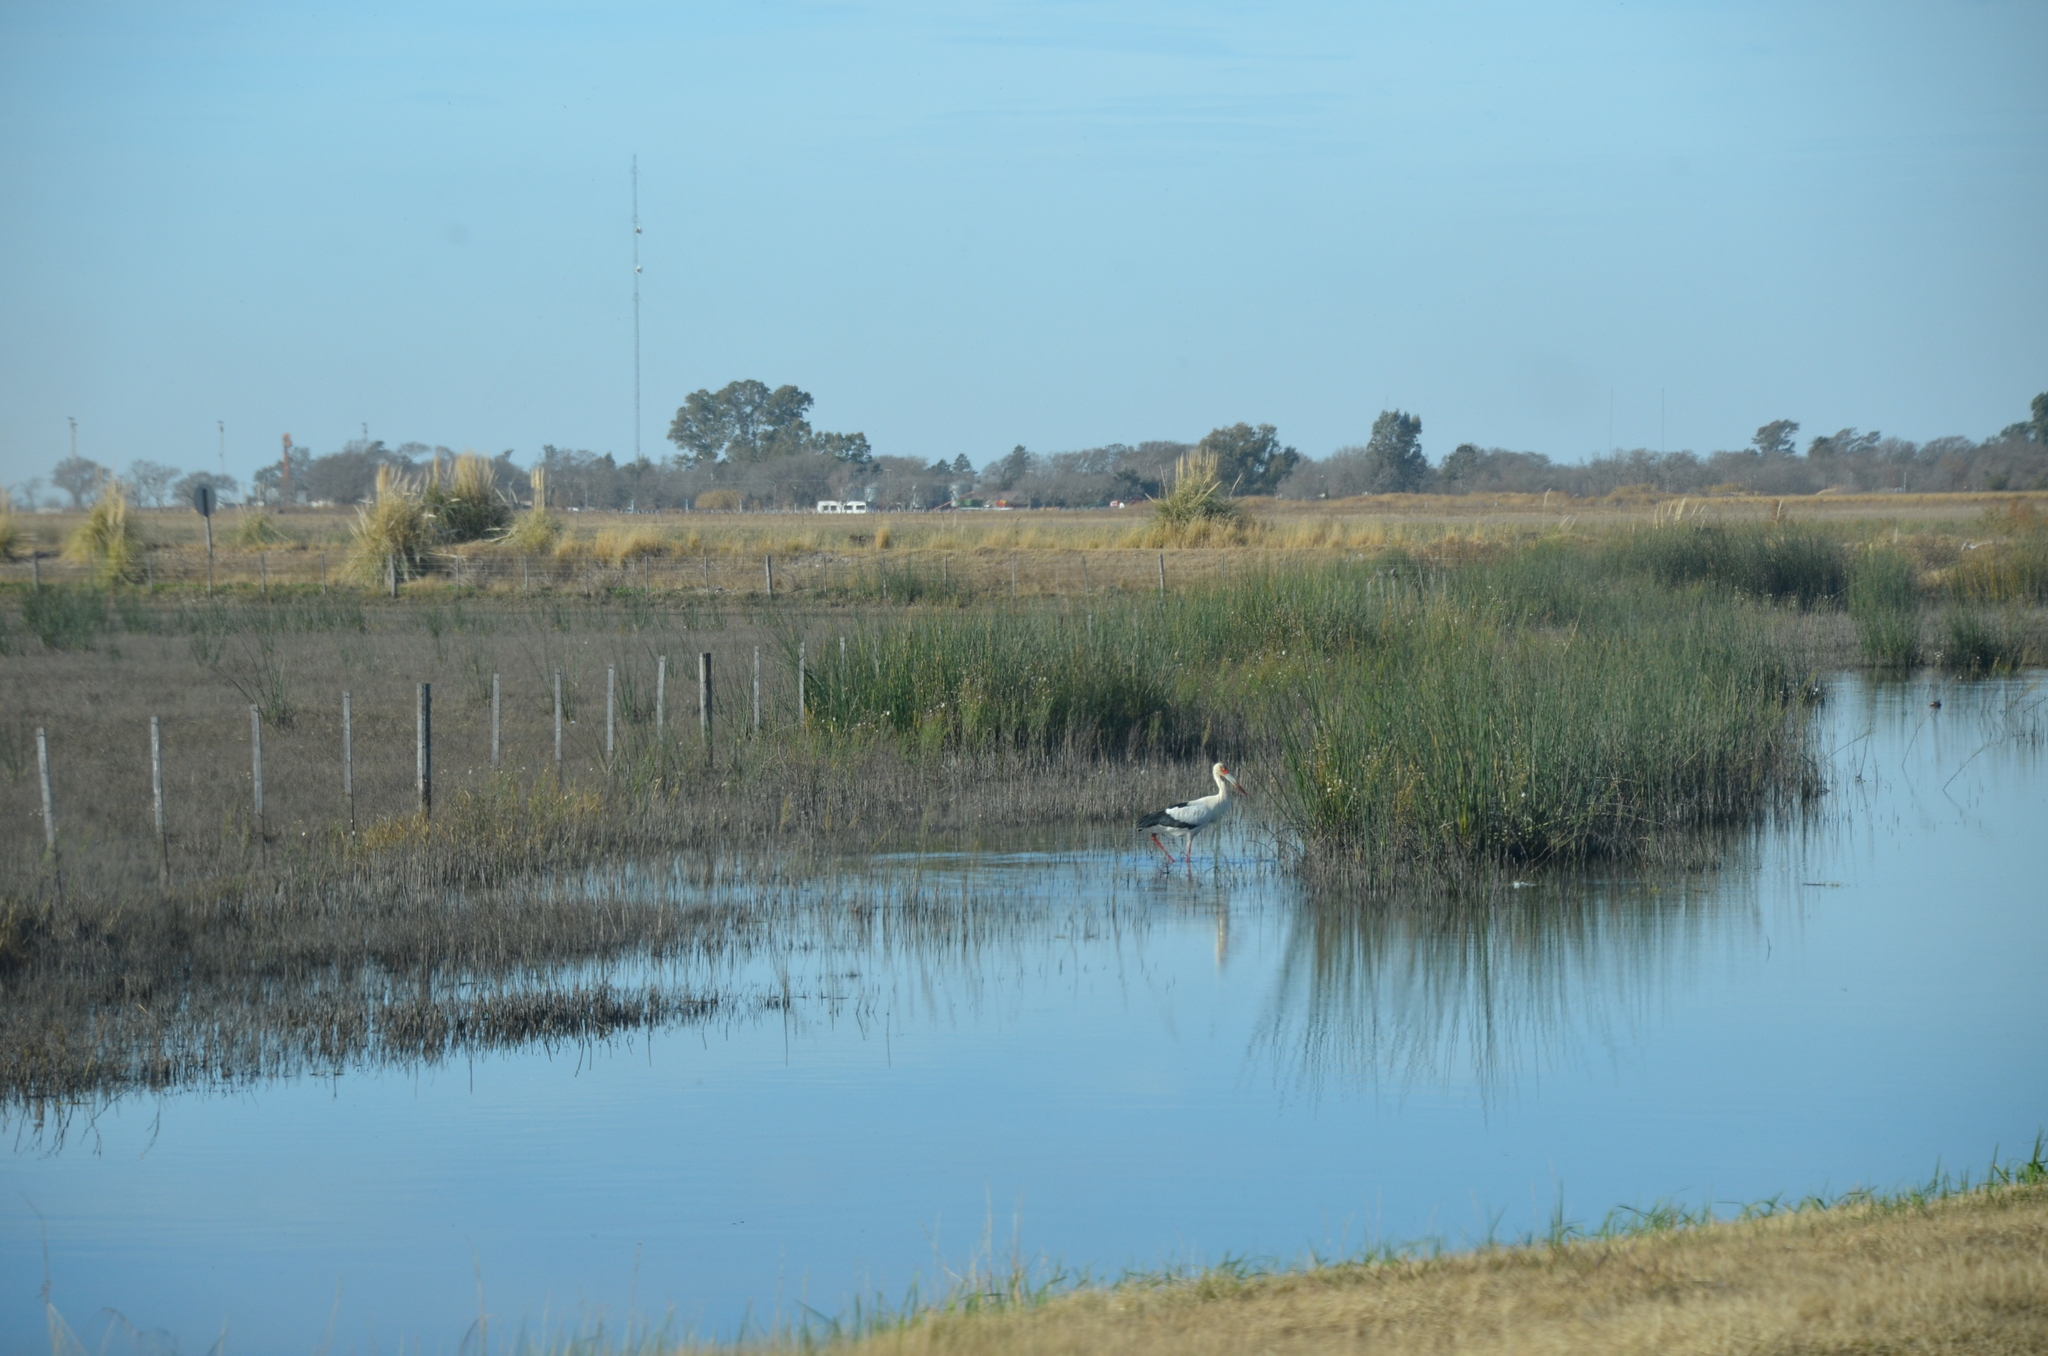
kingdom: Animalia
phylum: Chordata
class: Aves
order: Ciconiiformes
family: Ciconiidae
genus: Ciconia
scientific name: Ciconia maguari
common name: Maguari stork
